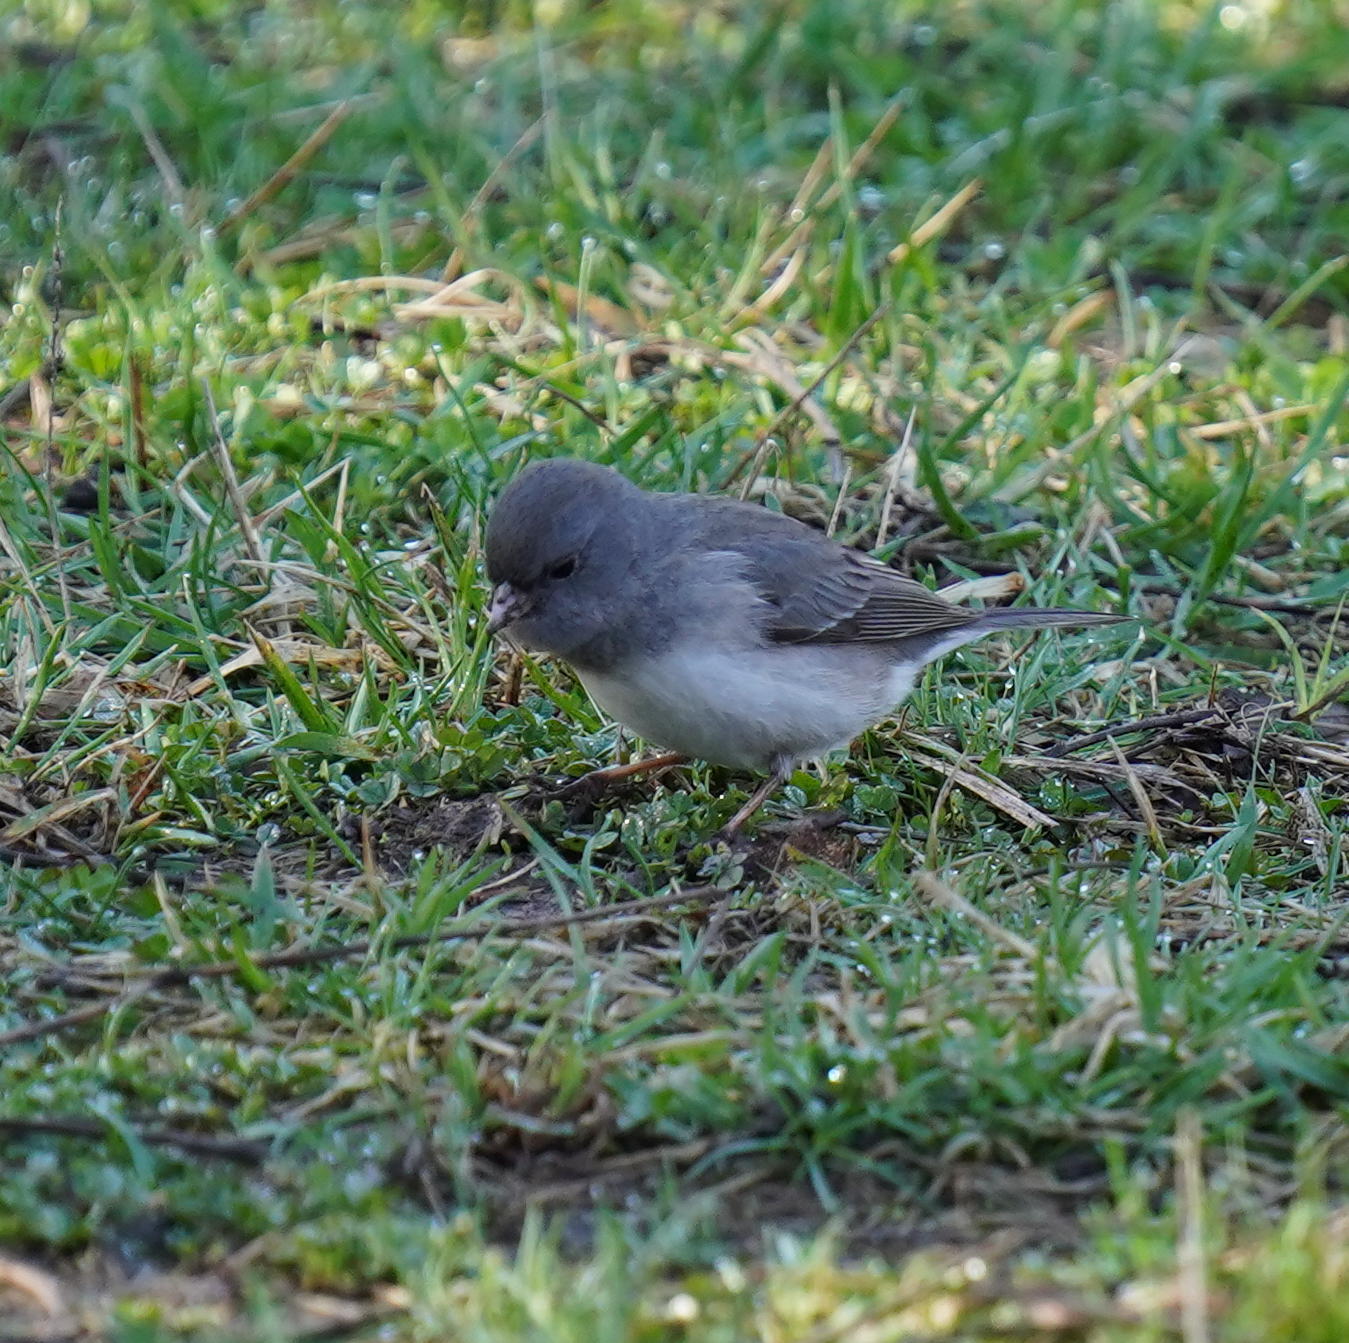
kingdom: Animalia
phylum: Chordata
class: Aves
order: Passeriformes
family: Passerellidae
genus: Junco
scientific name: Junco hyemalis
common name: Dark-eyed junco
